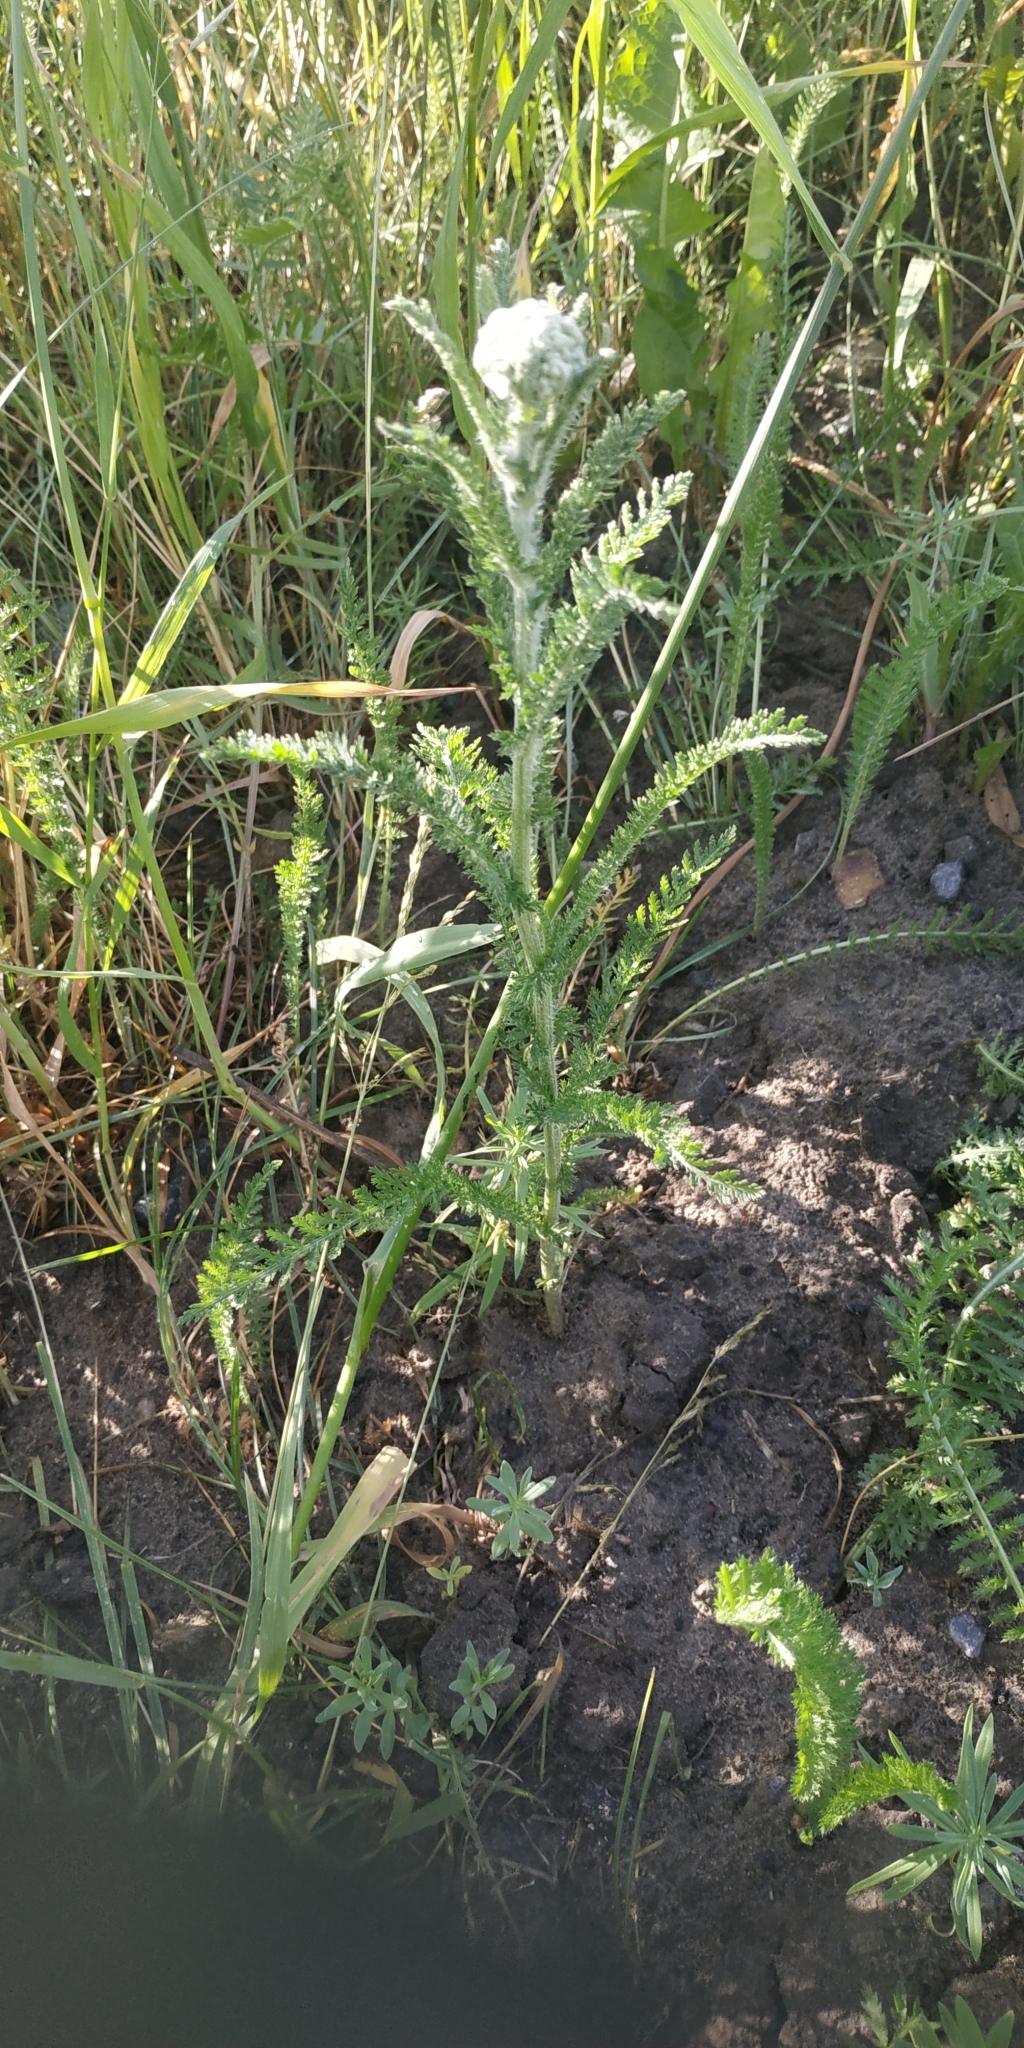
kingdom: Plantae
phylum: Tracheophyta
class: Magnoliopsida
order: Asterales
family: Asteraceae
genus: Achillea
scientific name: Achillea millefolium
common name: Yarrow
